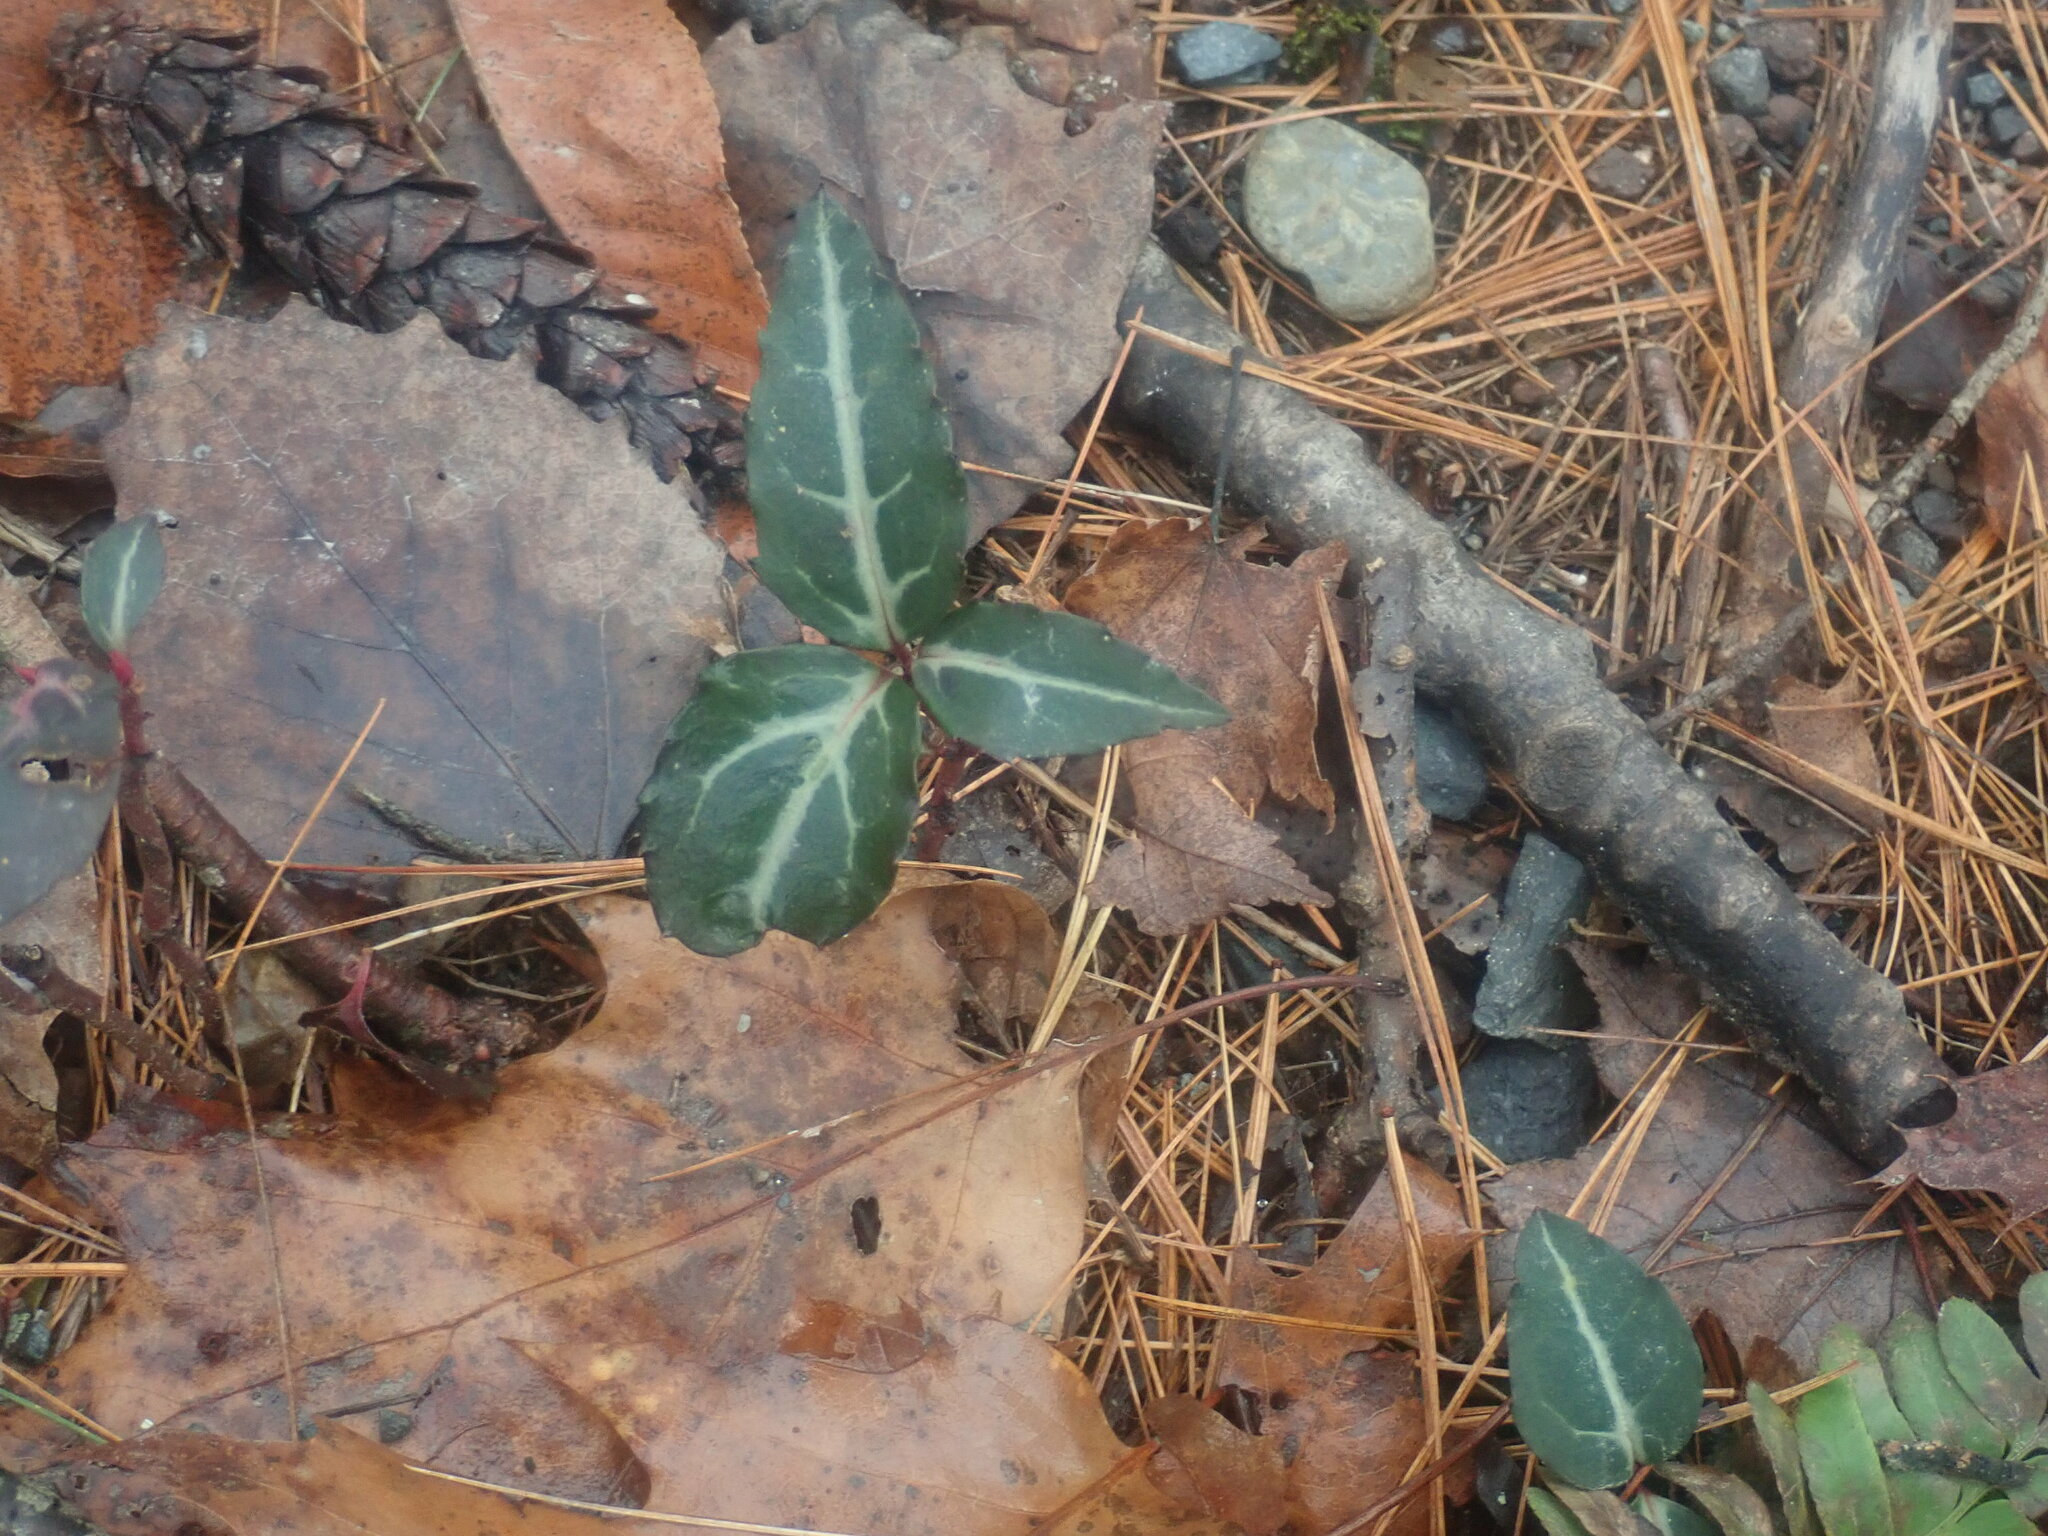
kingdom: Plantae
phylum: Tracheophyta
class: Magnoliopsida
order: Ericales
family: Ericaceae
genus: Chimaphila
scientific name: Chimaphila maculata
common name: Spotted pipsissewa
